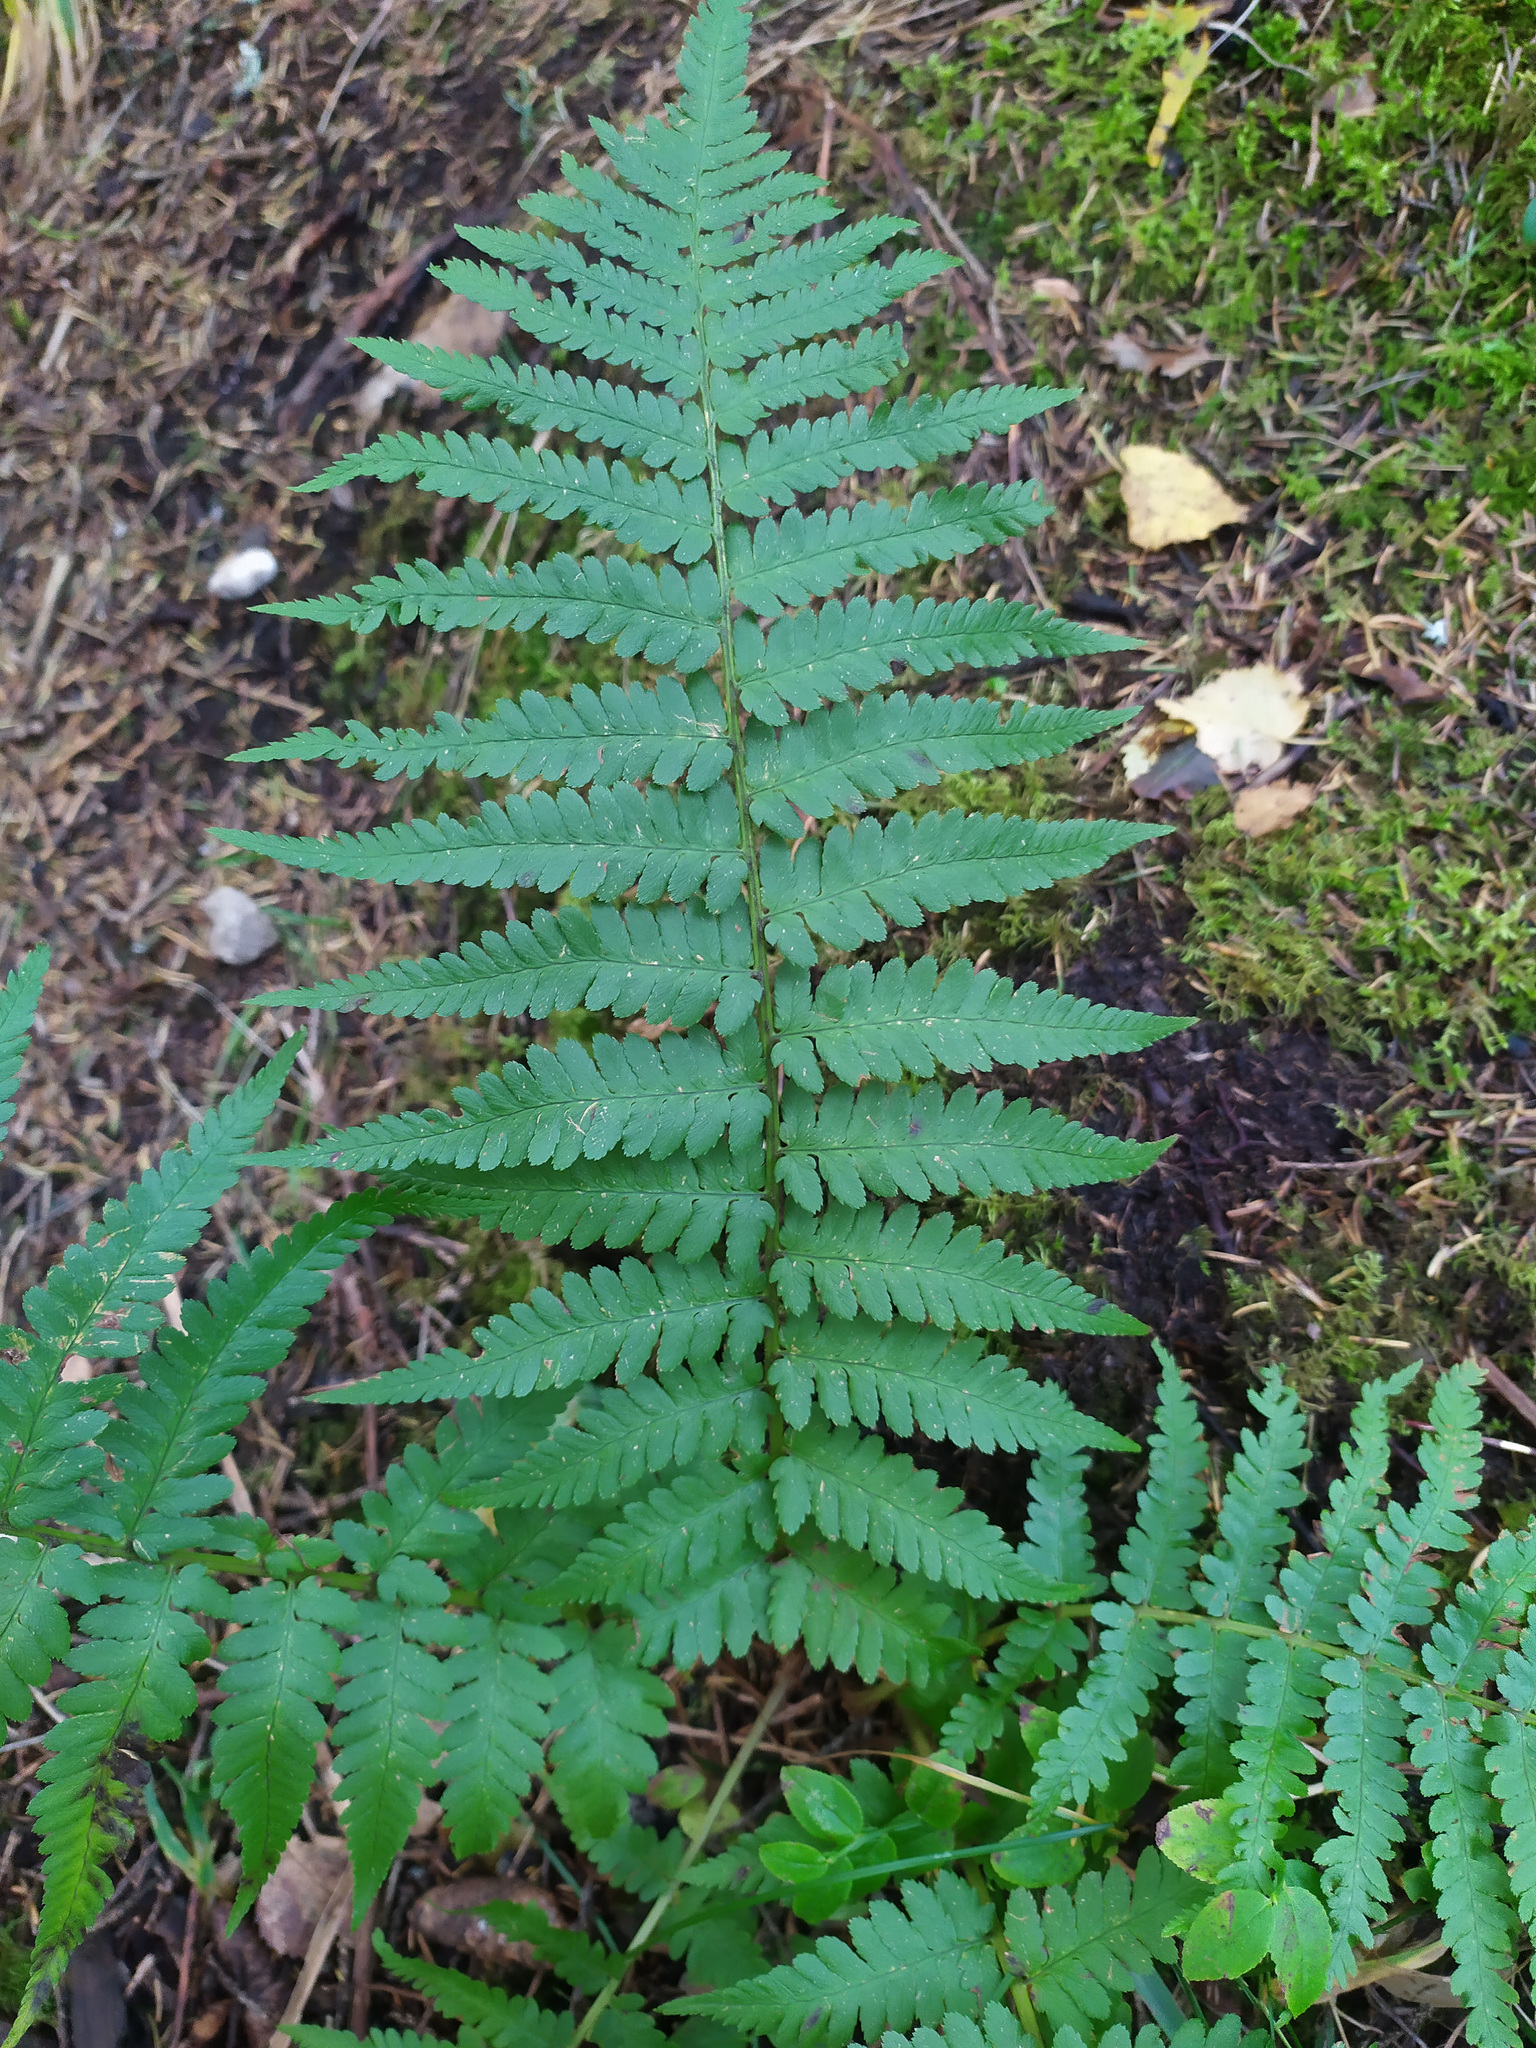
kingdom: Plantae
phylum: Tracheophyta
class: Polypodiopsida
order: Polypodiales
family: Dryopteridaceae
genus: Dryopteris
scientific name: Dryopteris filix-mas
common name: Male fern
